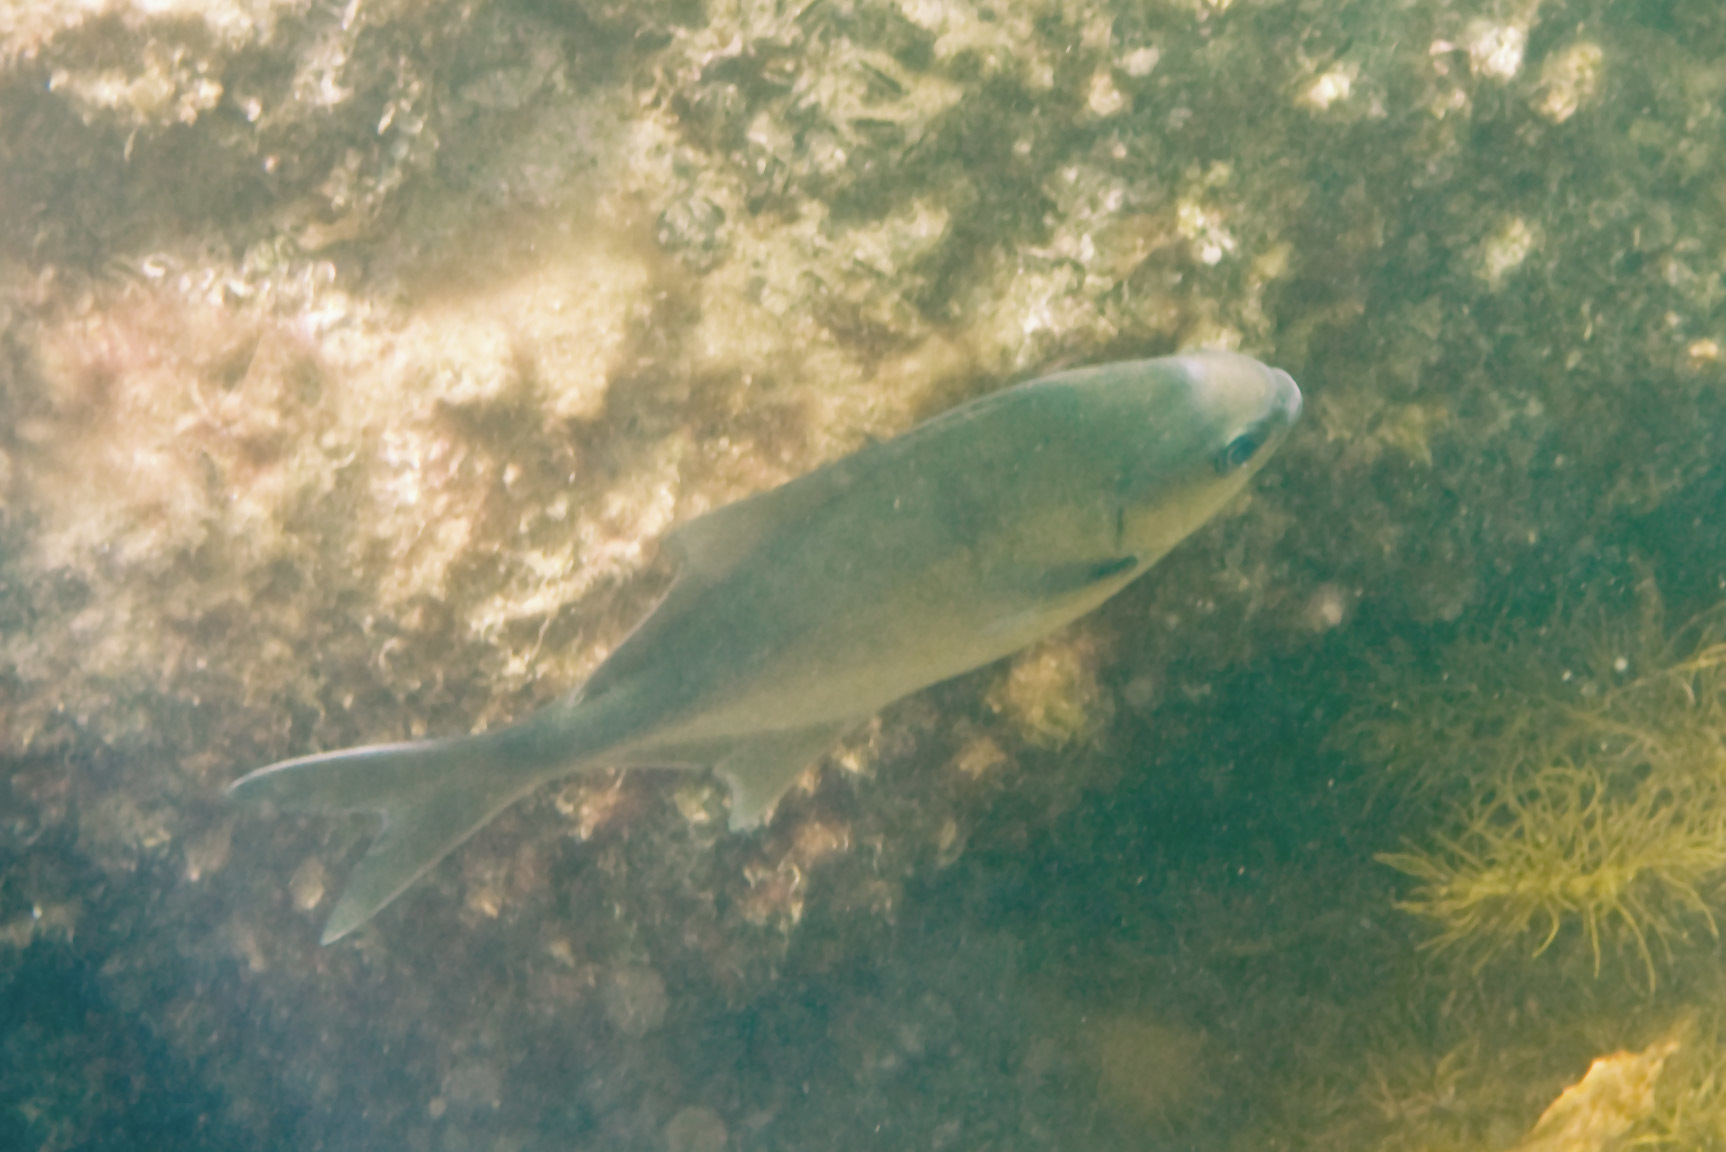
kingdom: Animalia
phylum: Chordata
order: Perciformes
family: Kyphosidae
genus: Scorpis
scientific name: Scorpis aequipinnis
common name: Sea sweep
